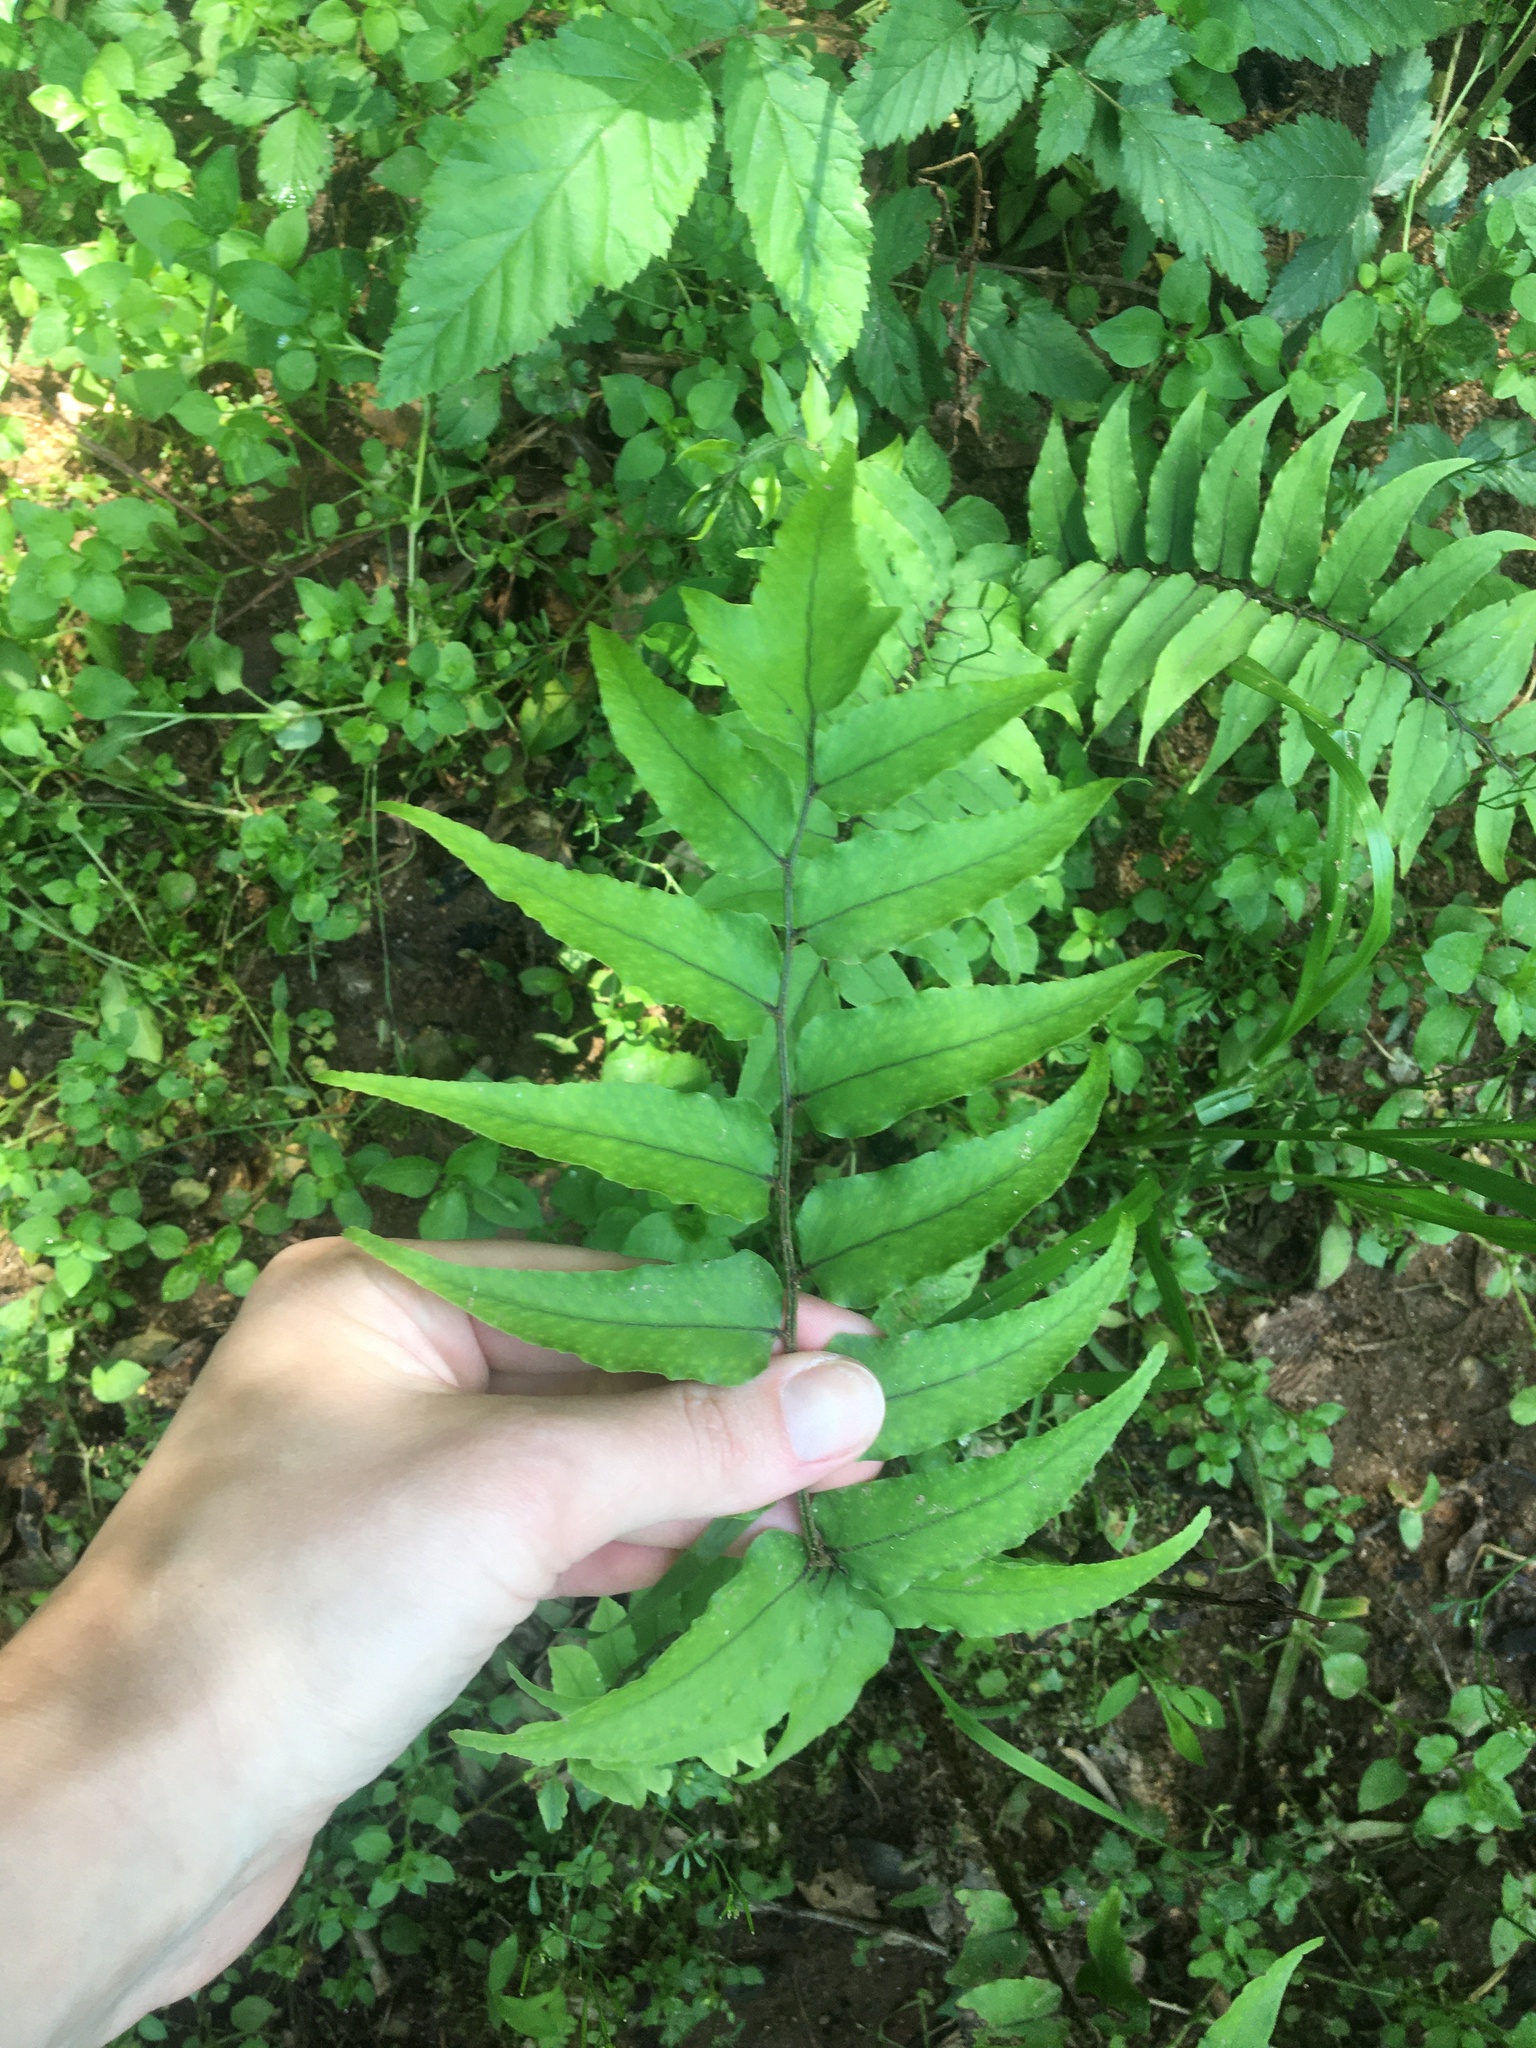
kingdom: Plantae
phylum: Tracheophyta
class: Polypodiopsida
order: Polypodiales
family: Dryopteridaceae
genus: Cyrtomium
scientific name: Cyrtomium fortunei
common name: Asian netvein hollyfern
